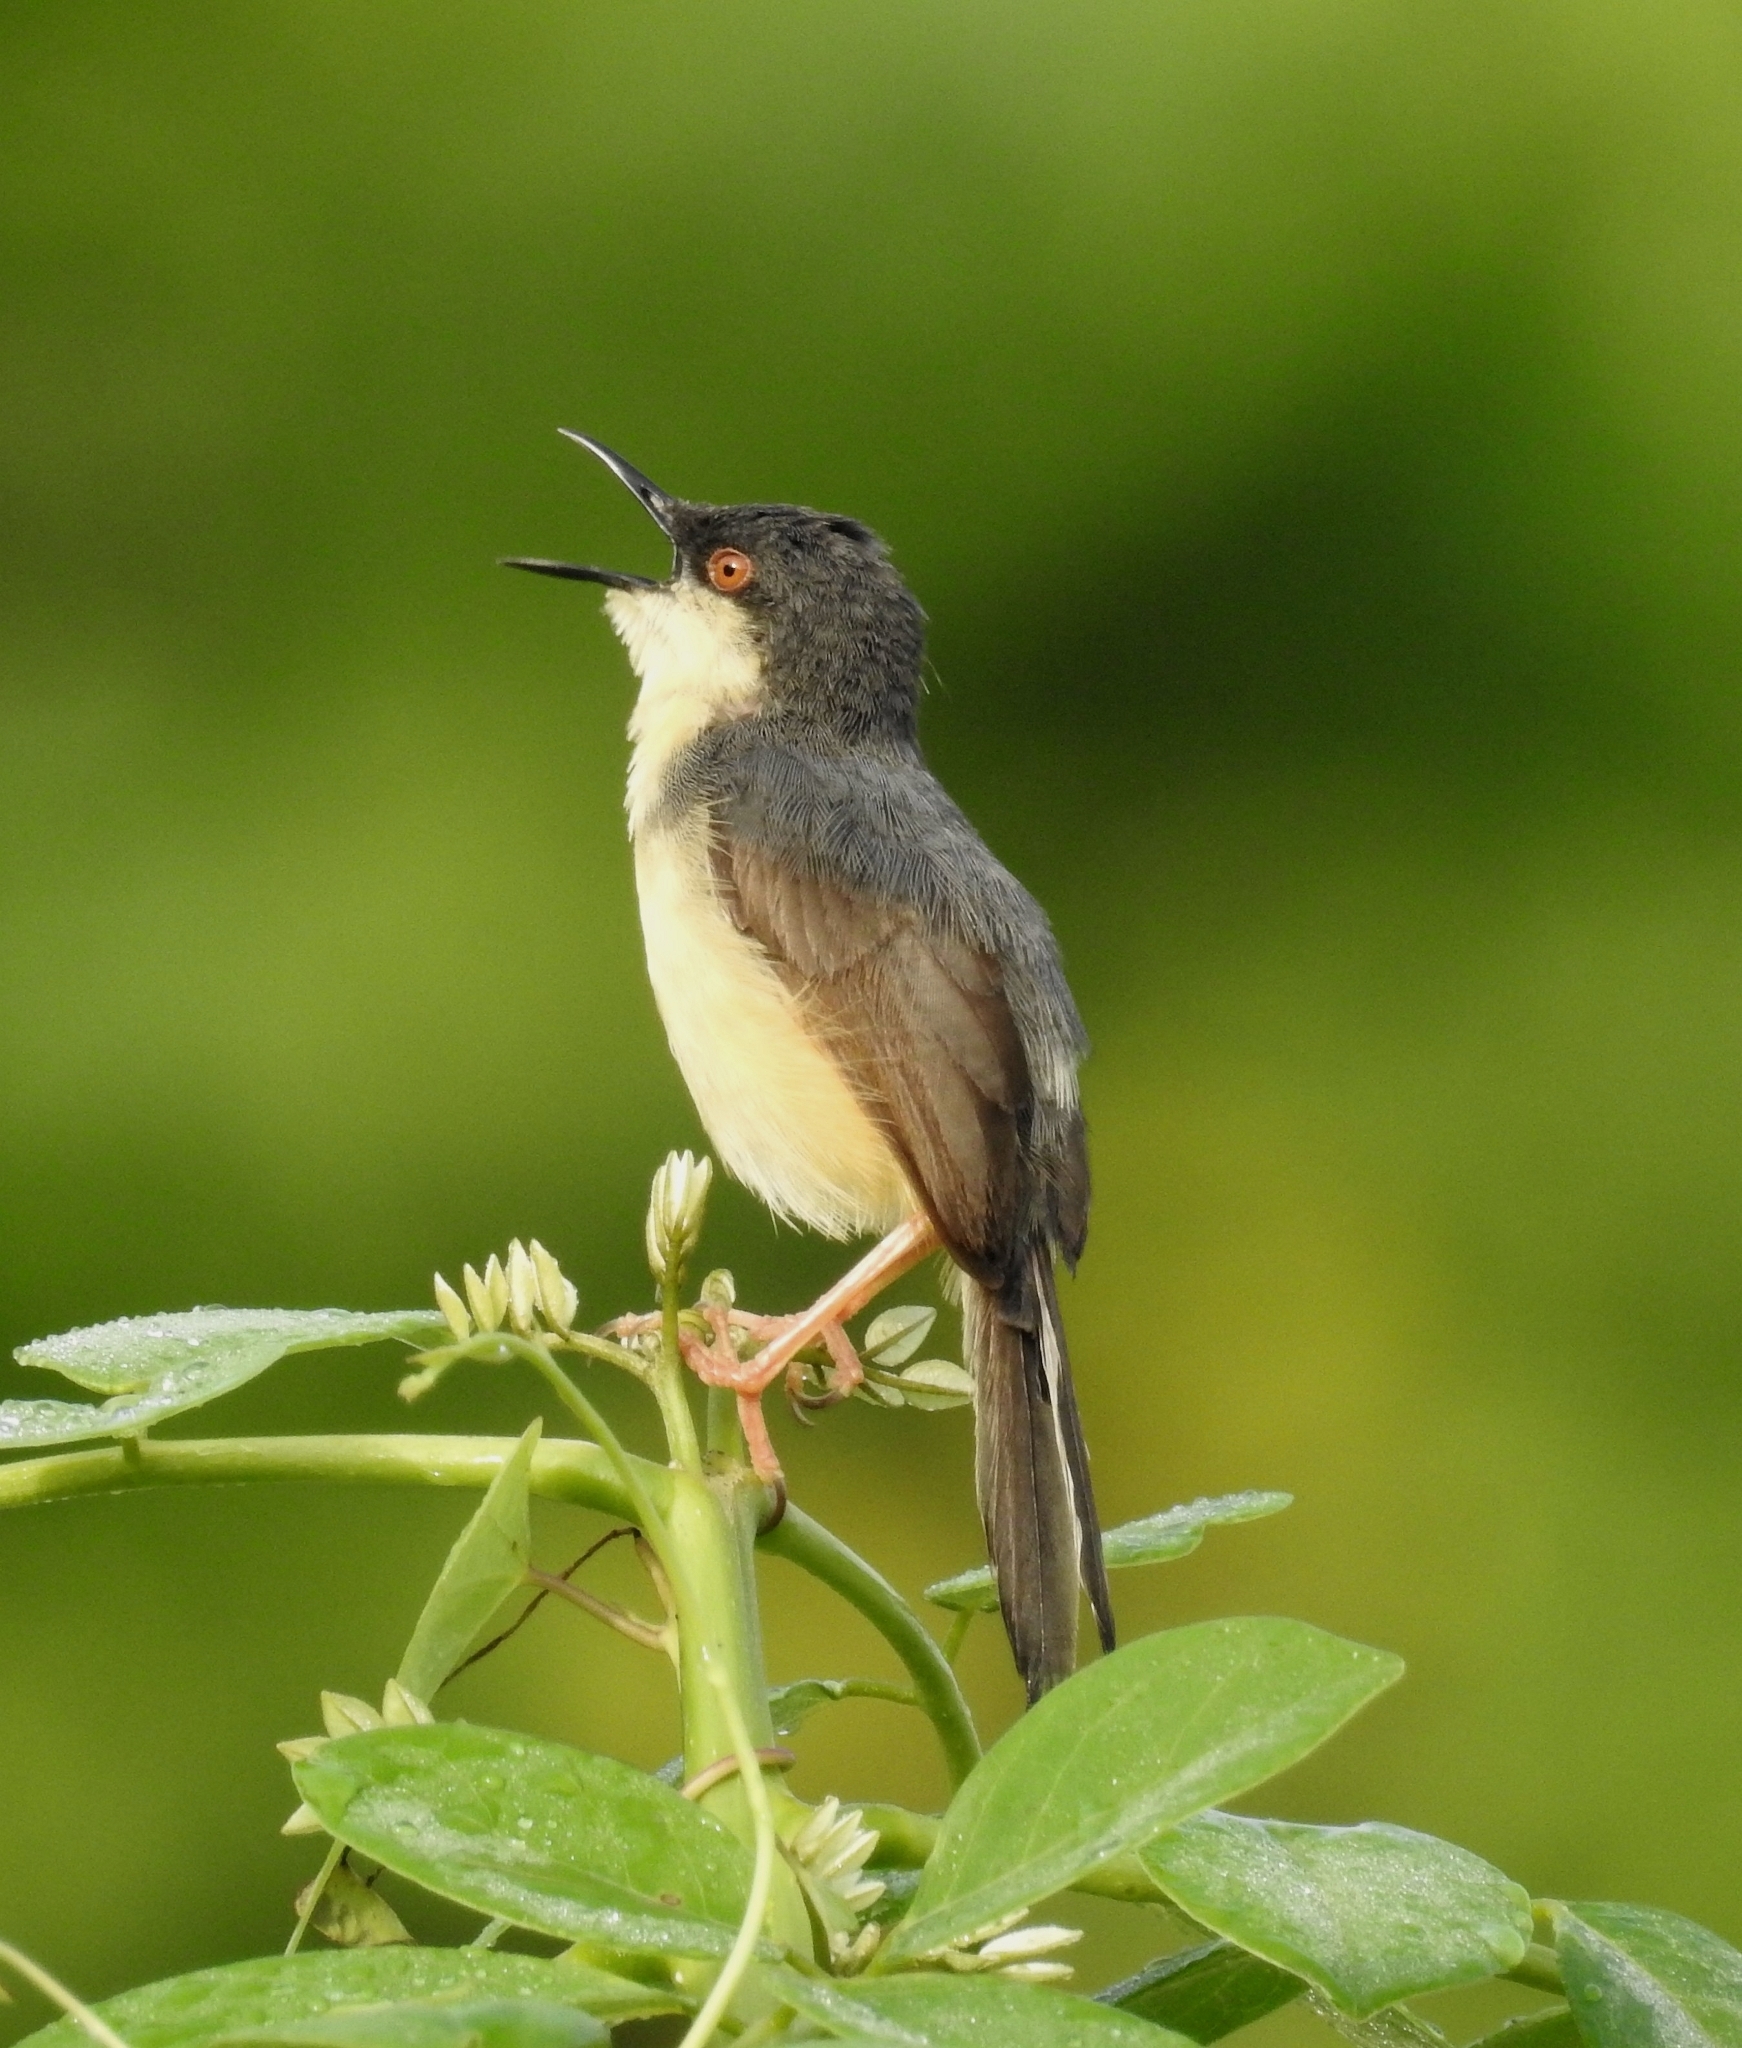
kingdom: Animalia
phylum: Chordata
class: Aves
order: Passeriformes
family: Cisticolidae
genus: Prinia
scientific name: Prinia socialis
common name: Ashy prinia
